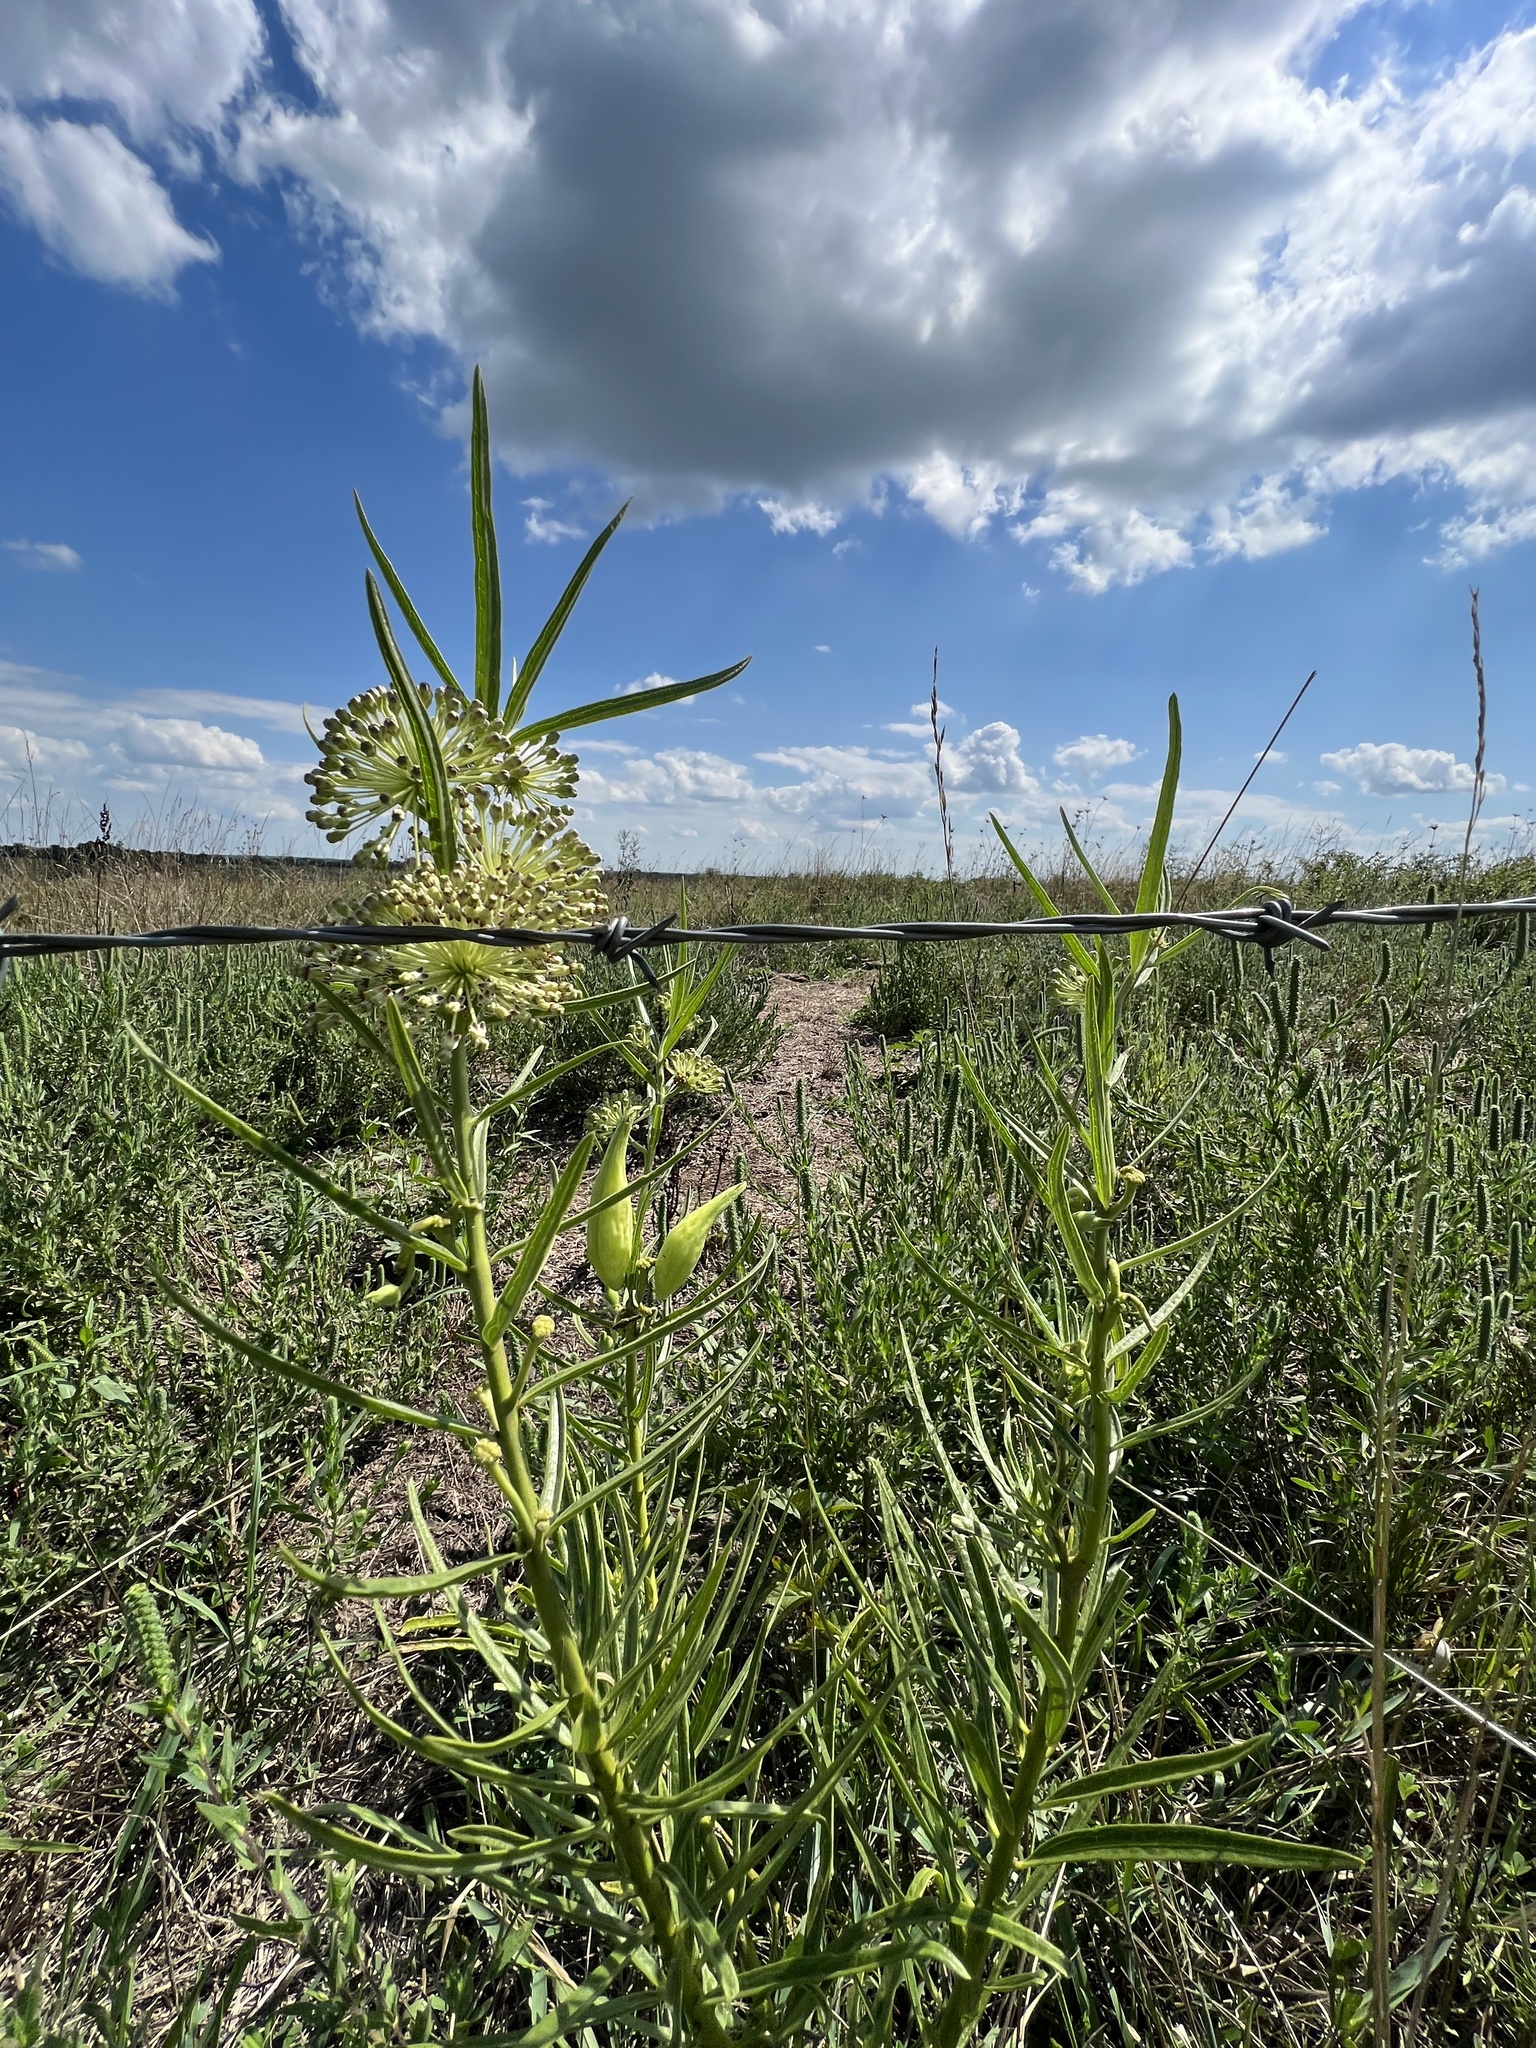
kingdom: Plantae
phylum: Tracheophyta
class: Magnoliopsida
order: Gentianales
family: Apocynaceae
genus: Asclepias
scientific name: Asclepias hirtella
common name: Prairie milkweed
